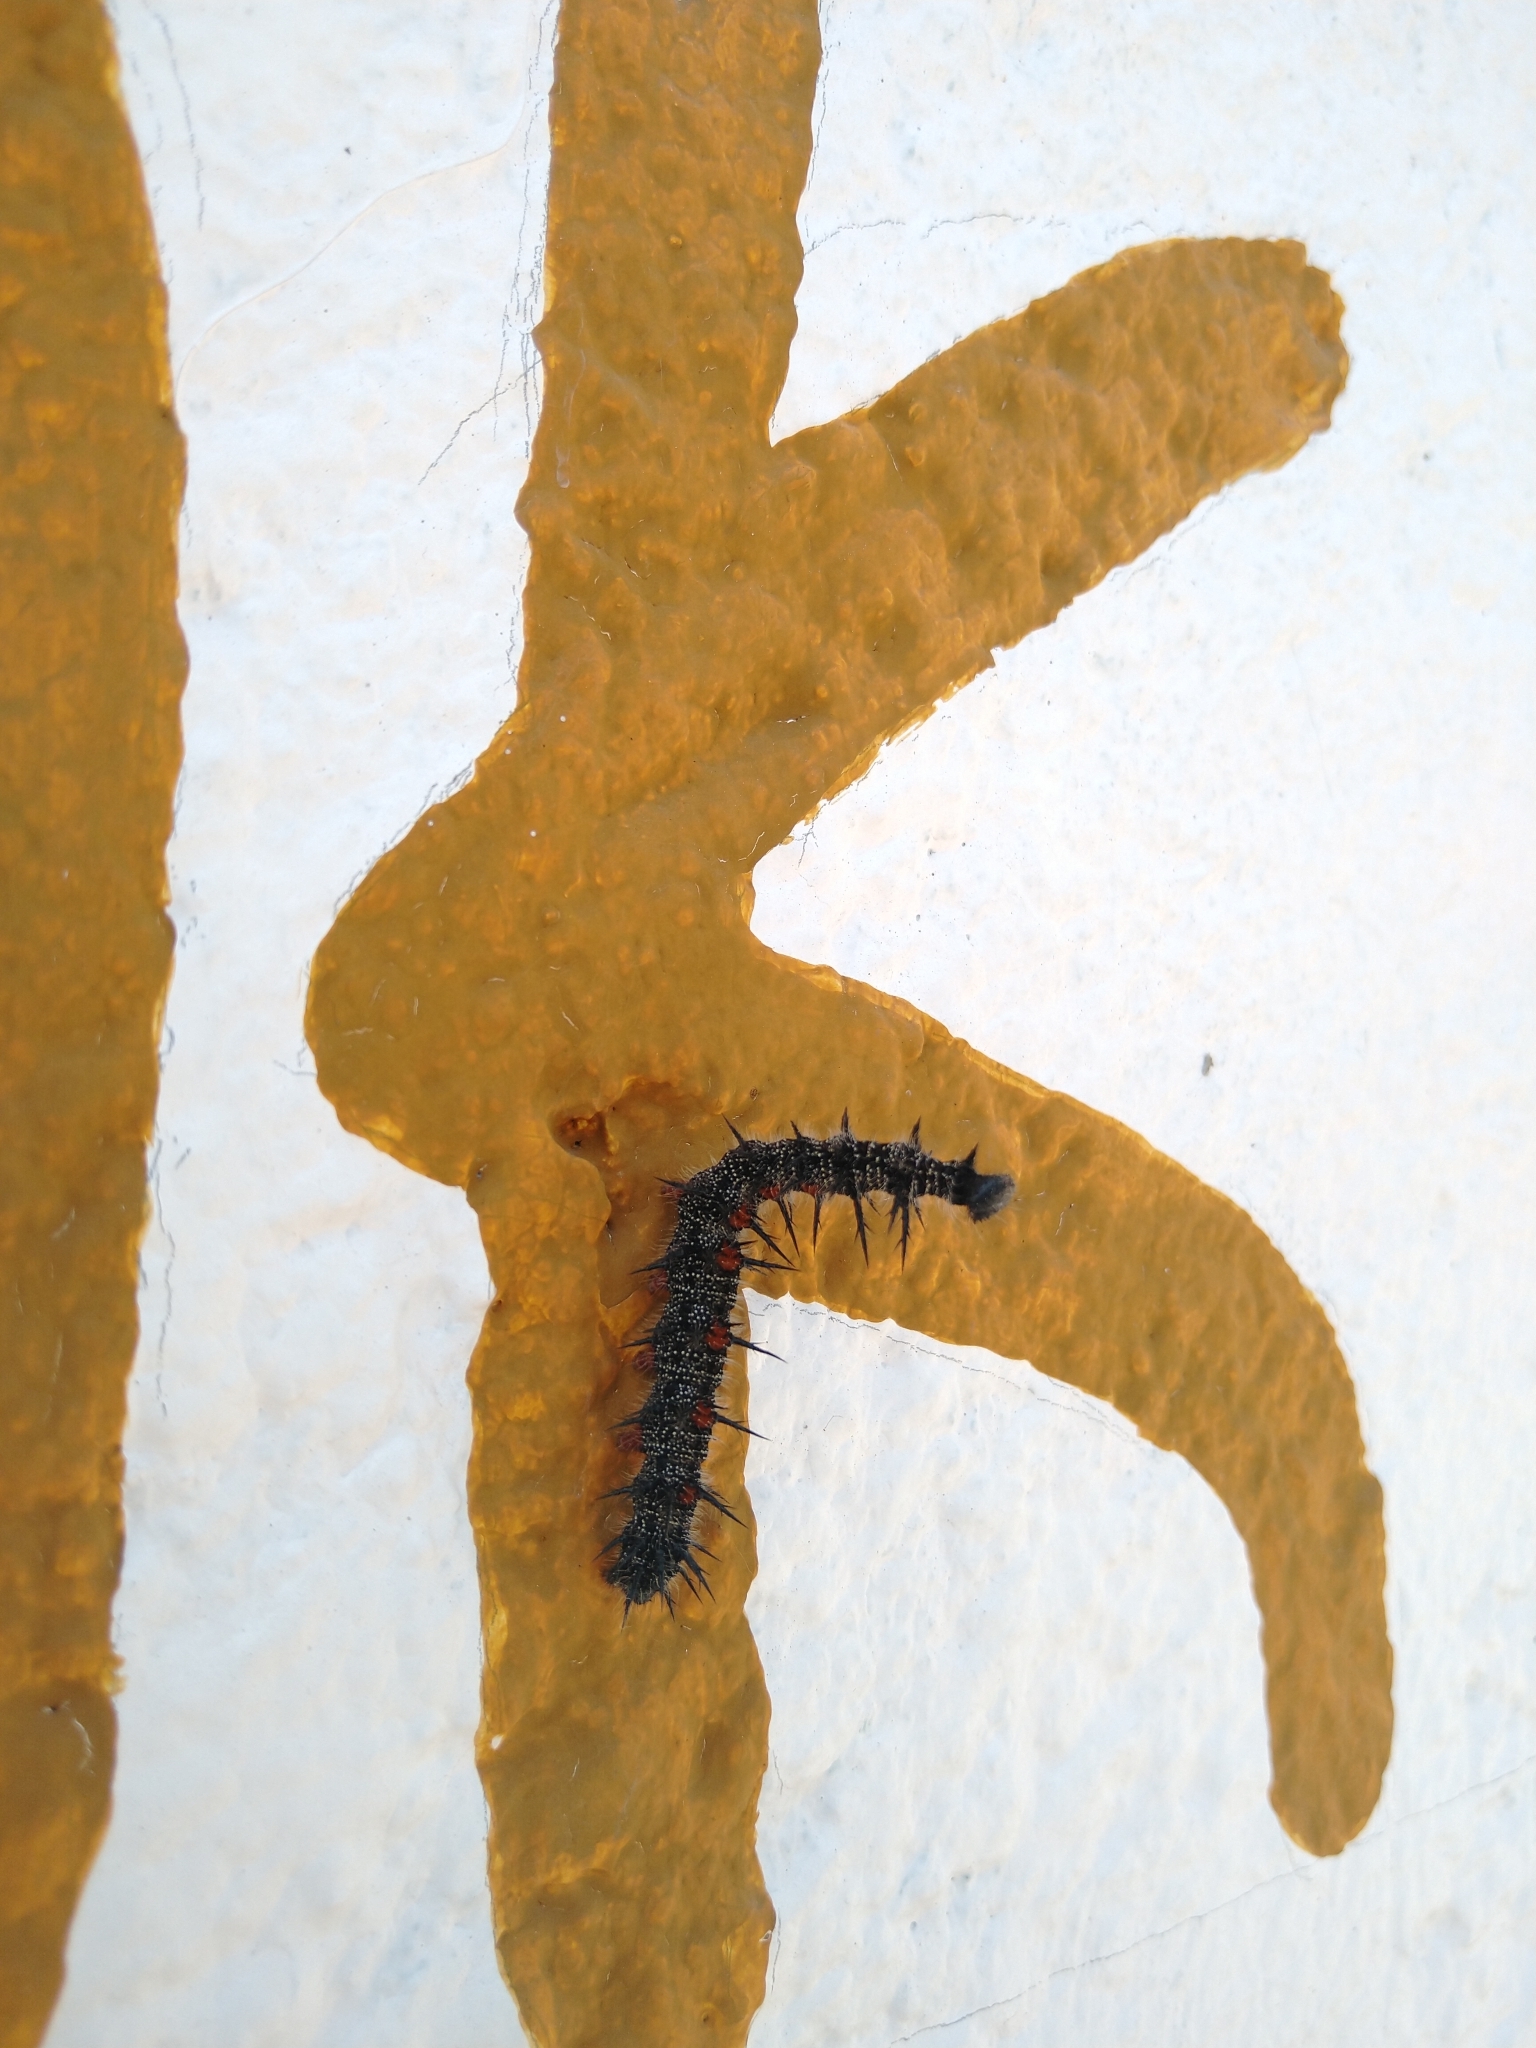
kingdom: Animalia
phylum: Arthropoda
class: Insecta
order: Lepidoptera
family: Nymphalidae
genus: Nymphalis
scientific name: Nymphalis antiopa
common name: Camberwell beauty
